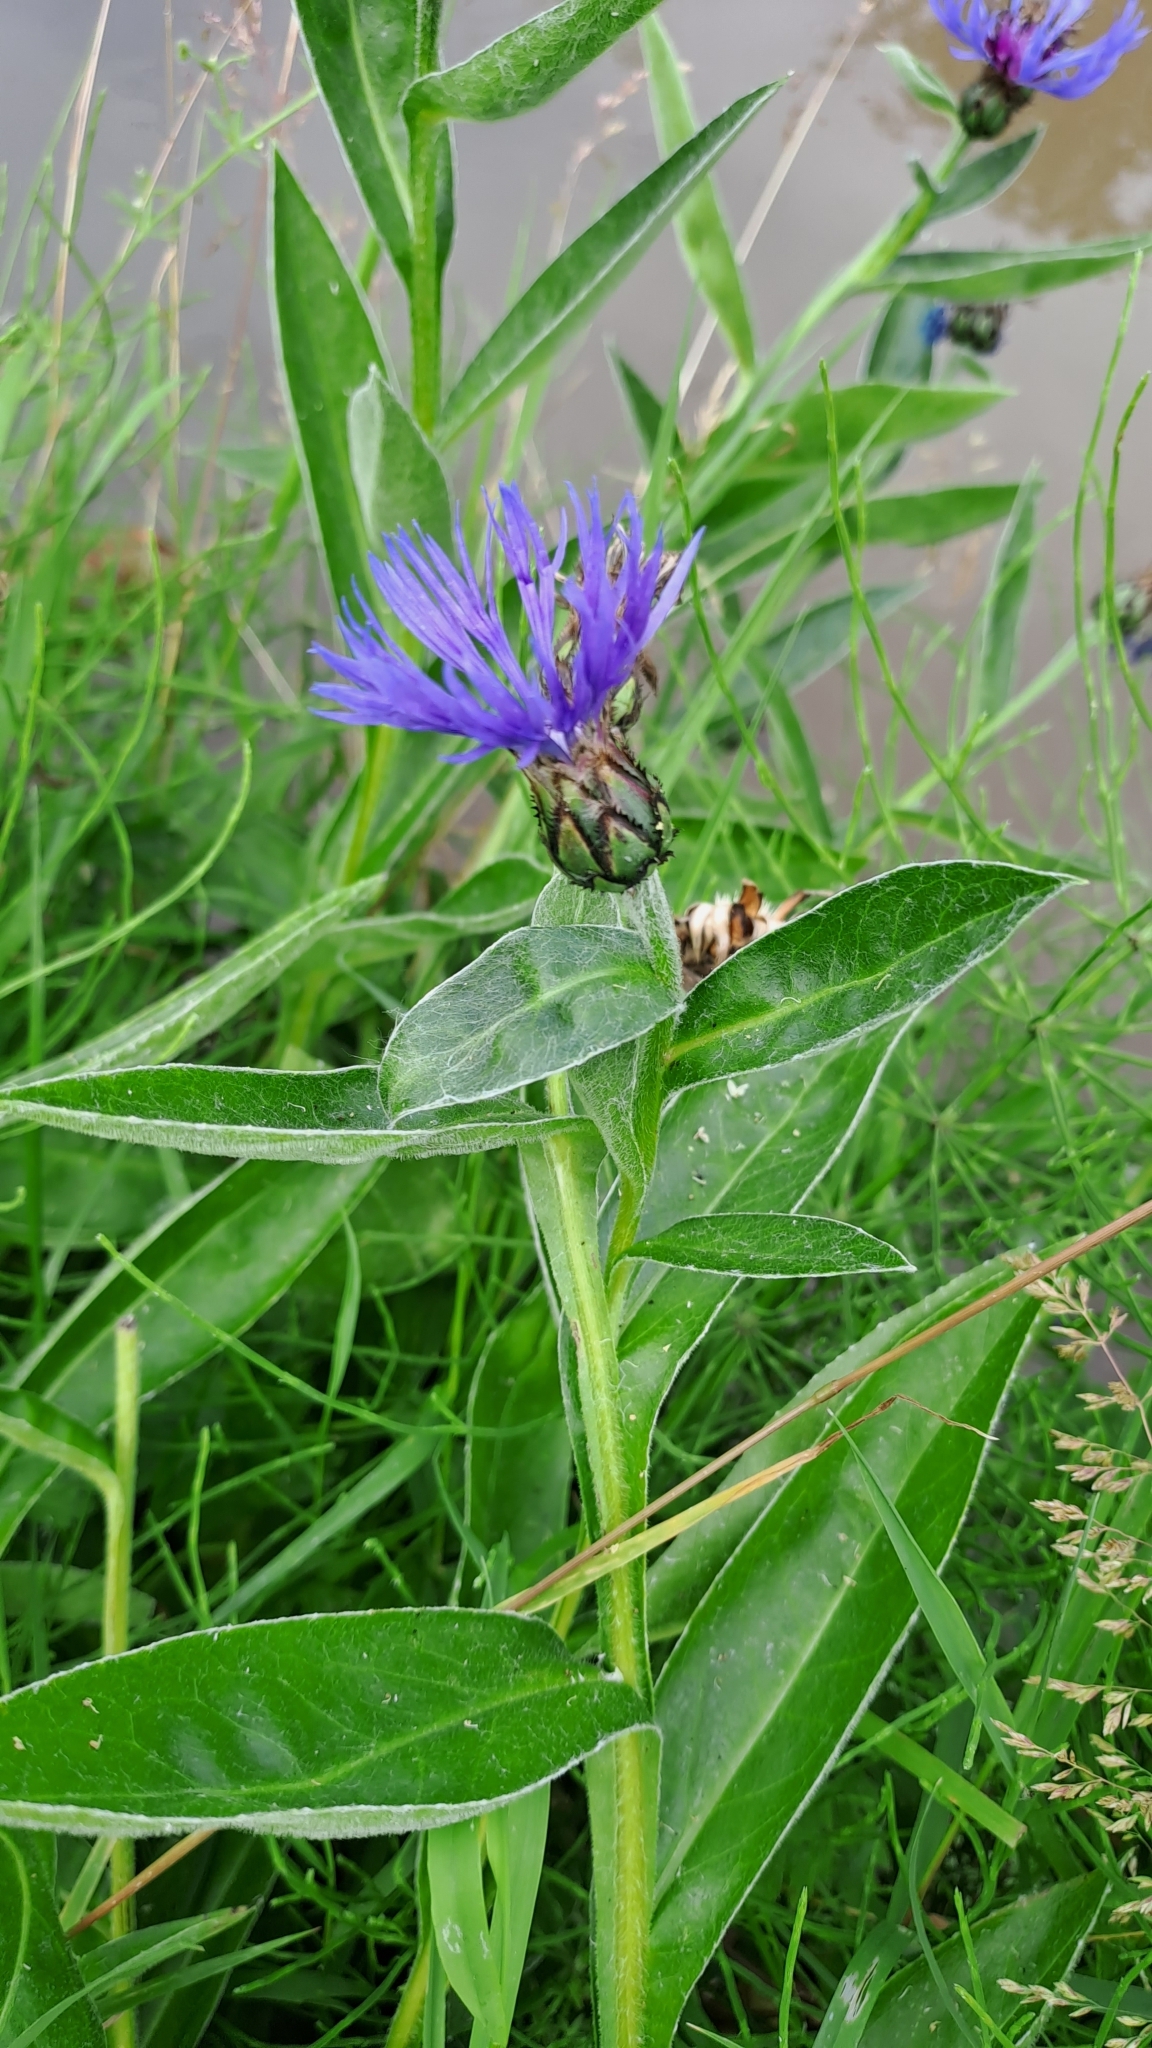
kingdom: Plantae
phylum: Tracheophyta
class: Magnoliopsida
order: Asterales
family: Asteraceae
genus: Centaurea
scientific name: Centaurea montana
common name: Perennial cornflower
